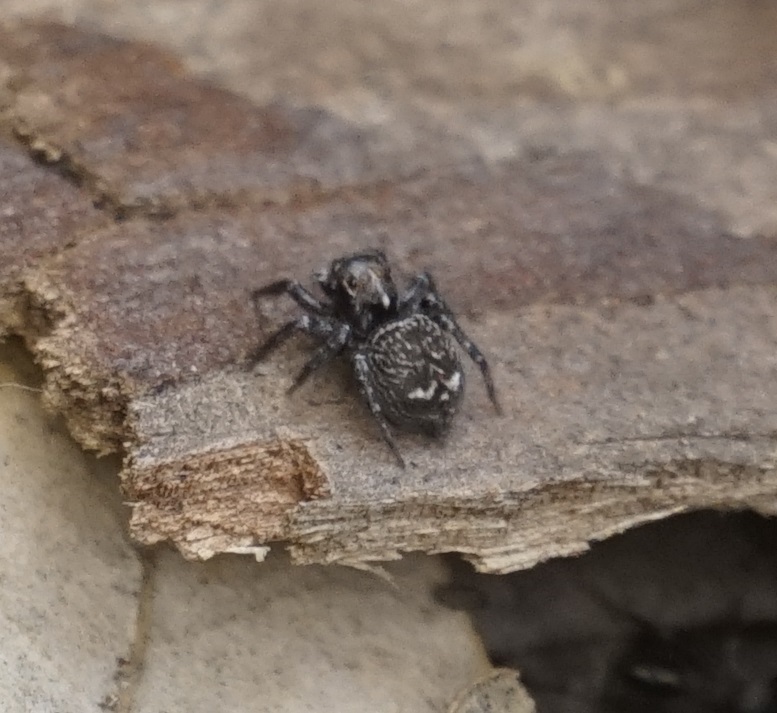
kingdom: Animalia
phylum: Arthropoda
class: Arachnida
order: Araneae
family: Salticidae
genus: Saitis
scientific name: Saitis virgatus
